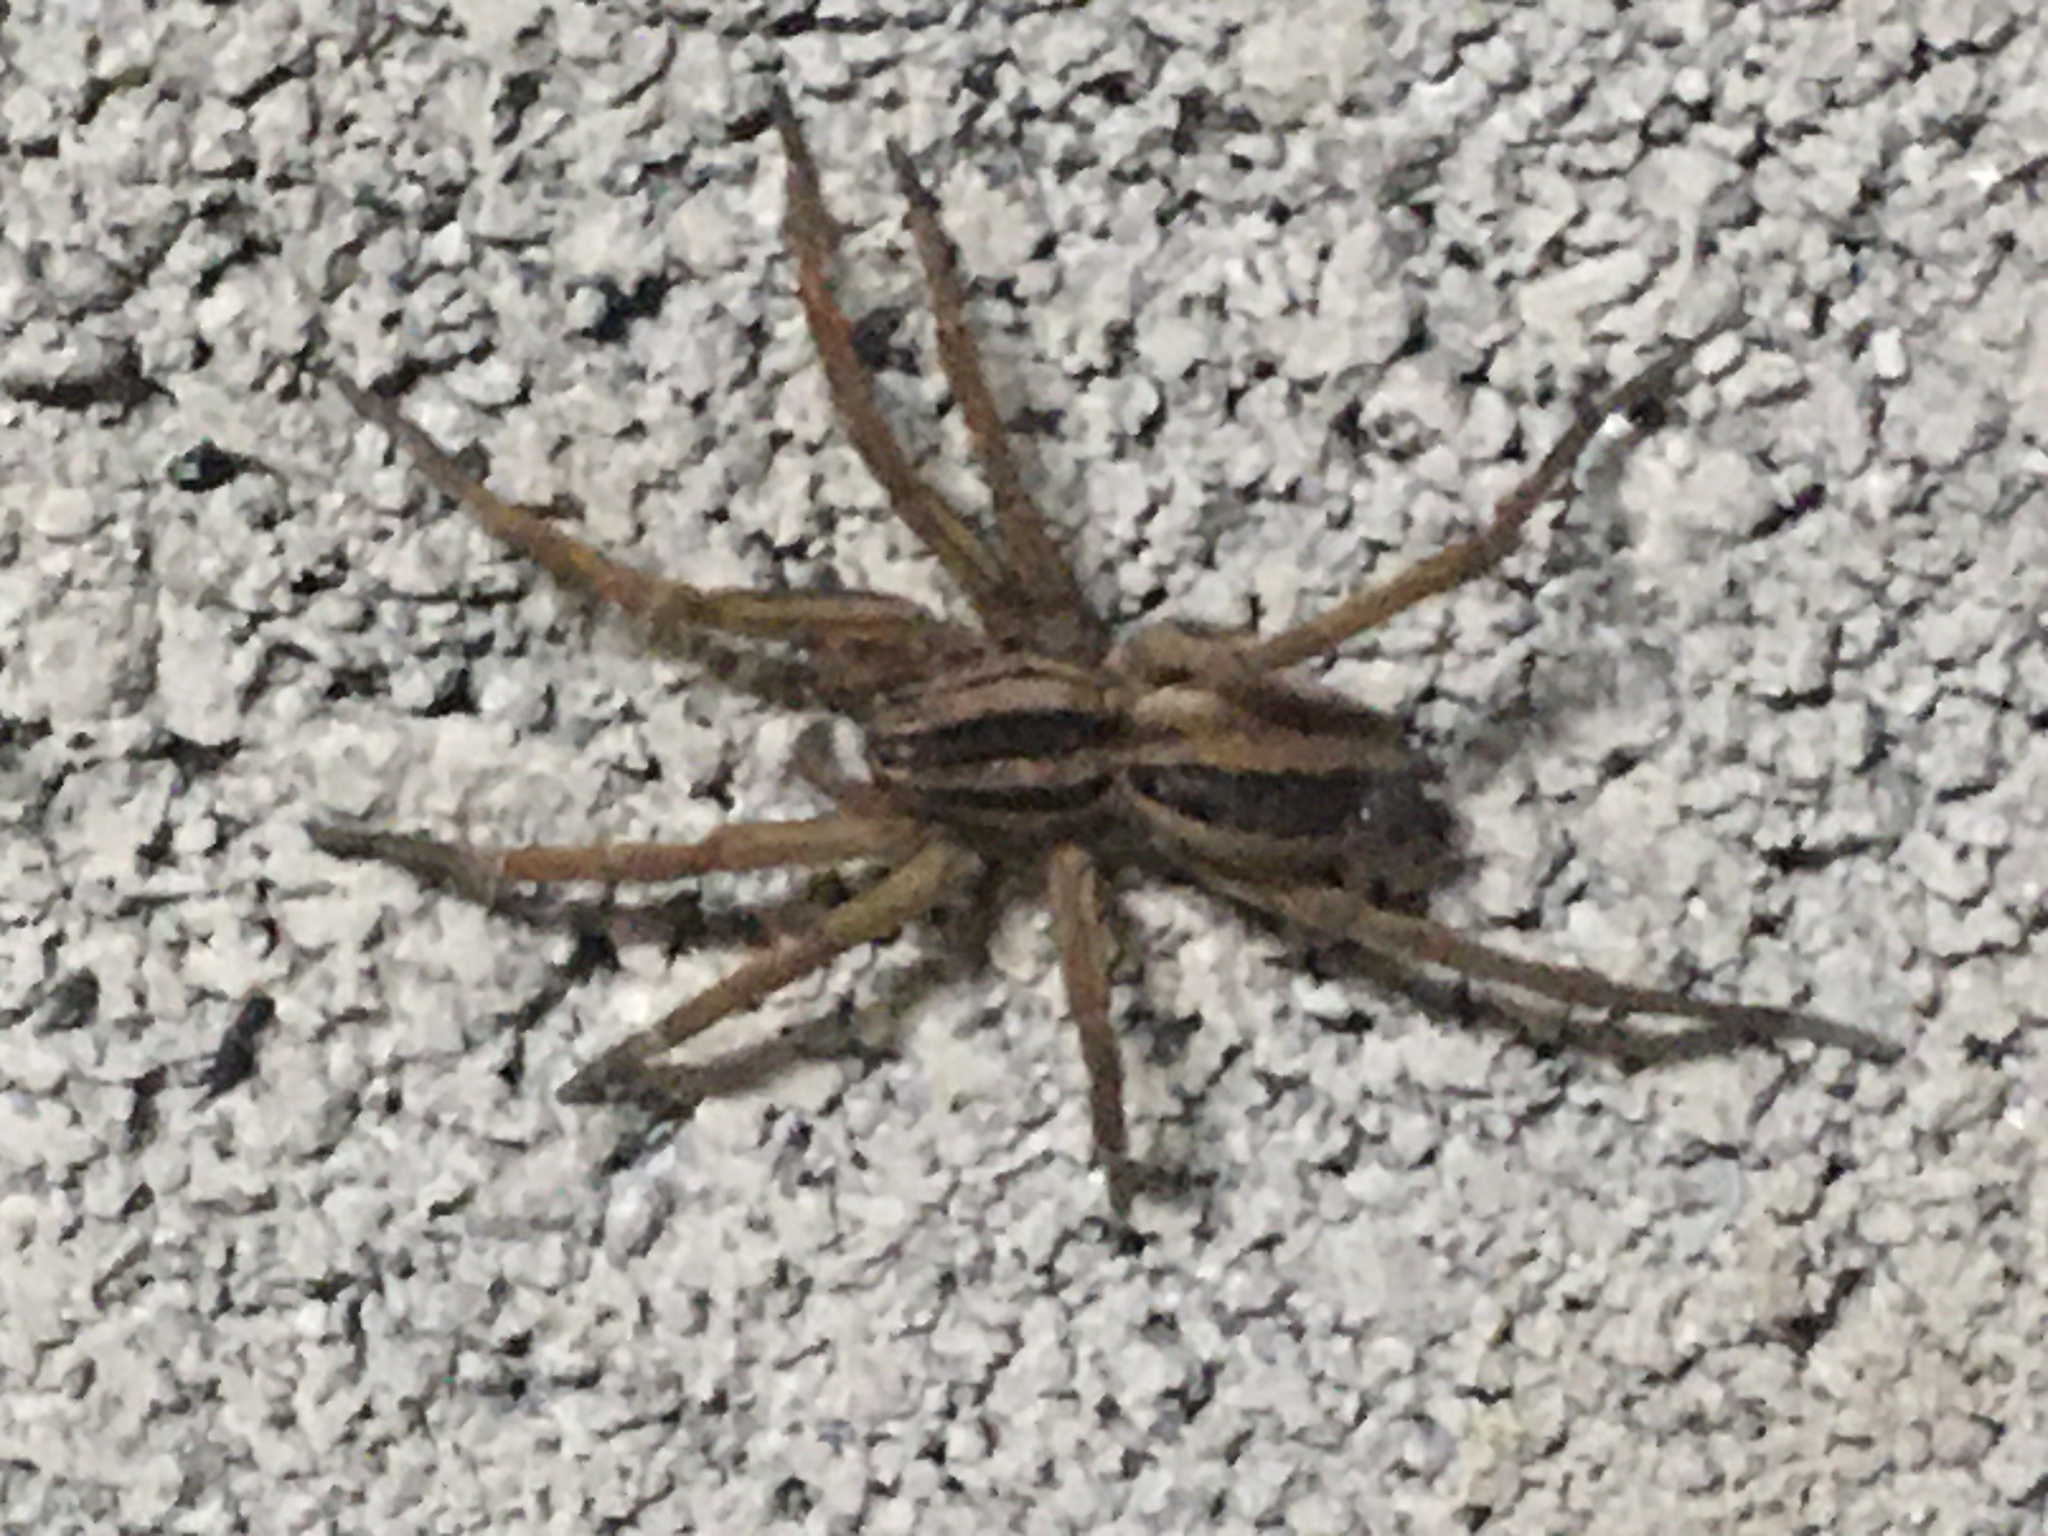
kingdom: Animalia
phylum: Arthropoda
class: Arachnida
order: Araneae
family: Lycosidae
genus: Rabidosa
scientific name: Rabidosa
